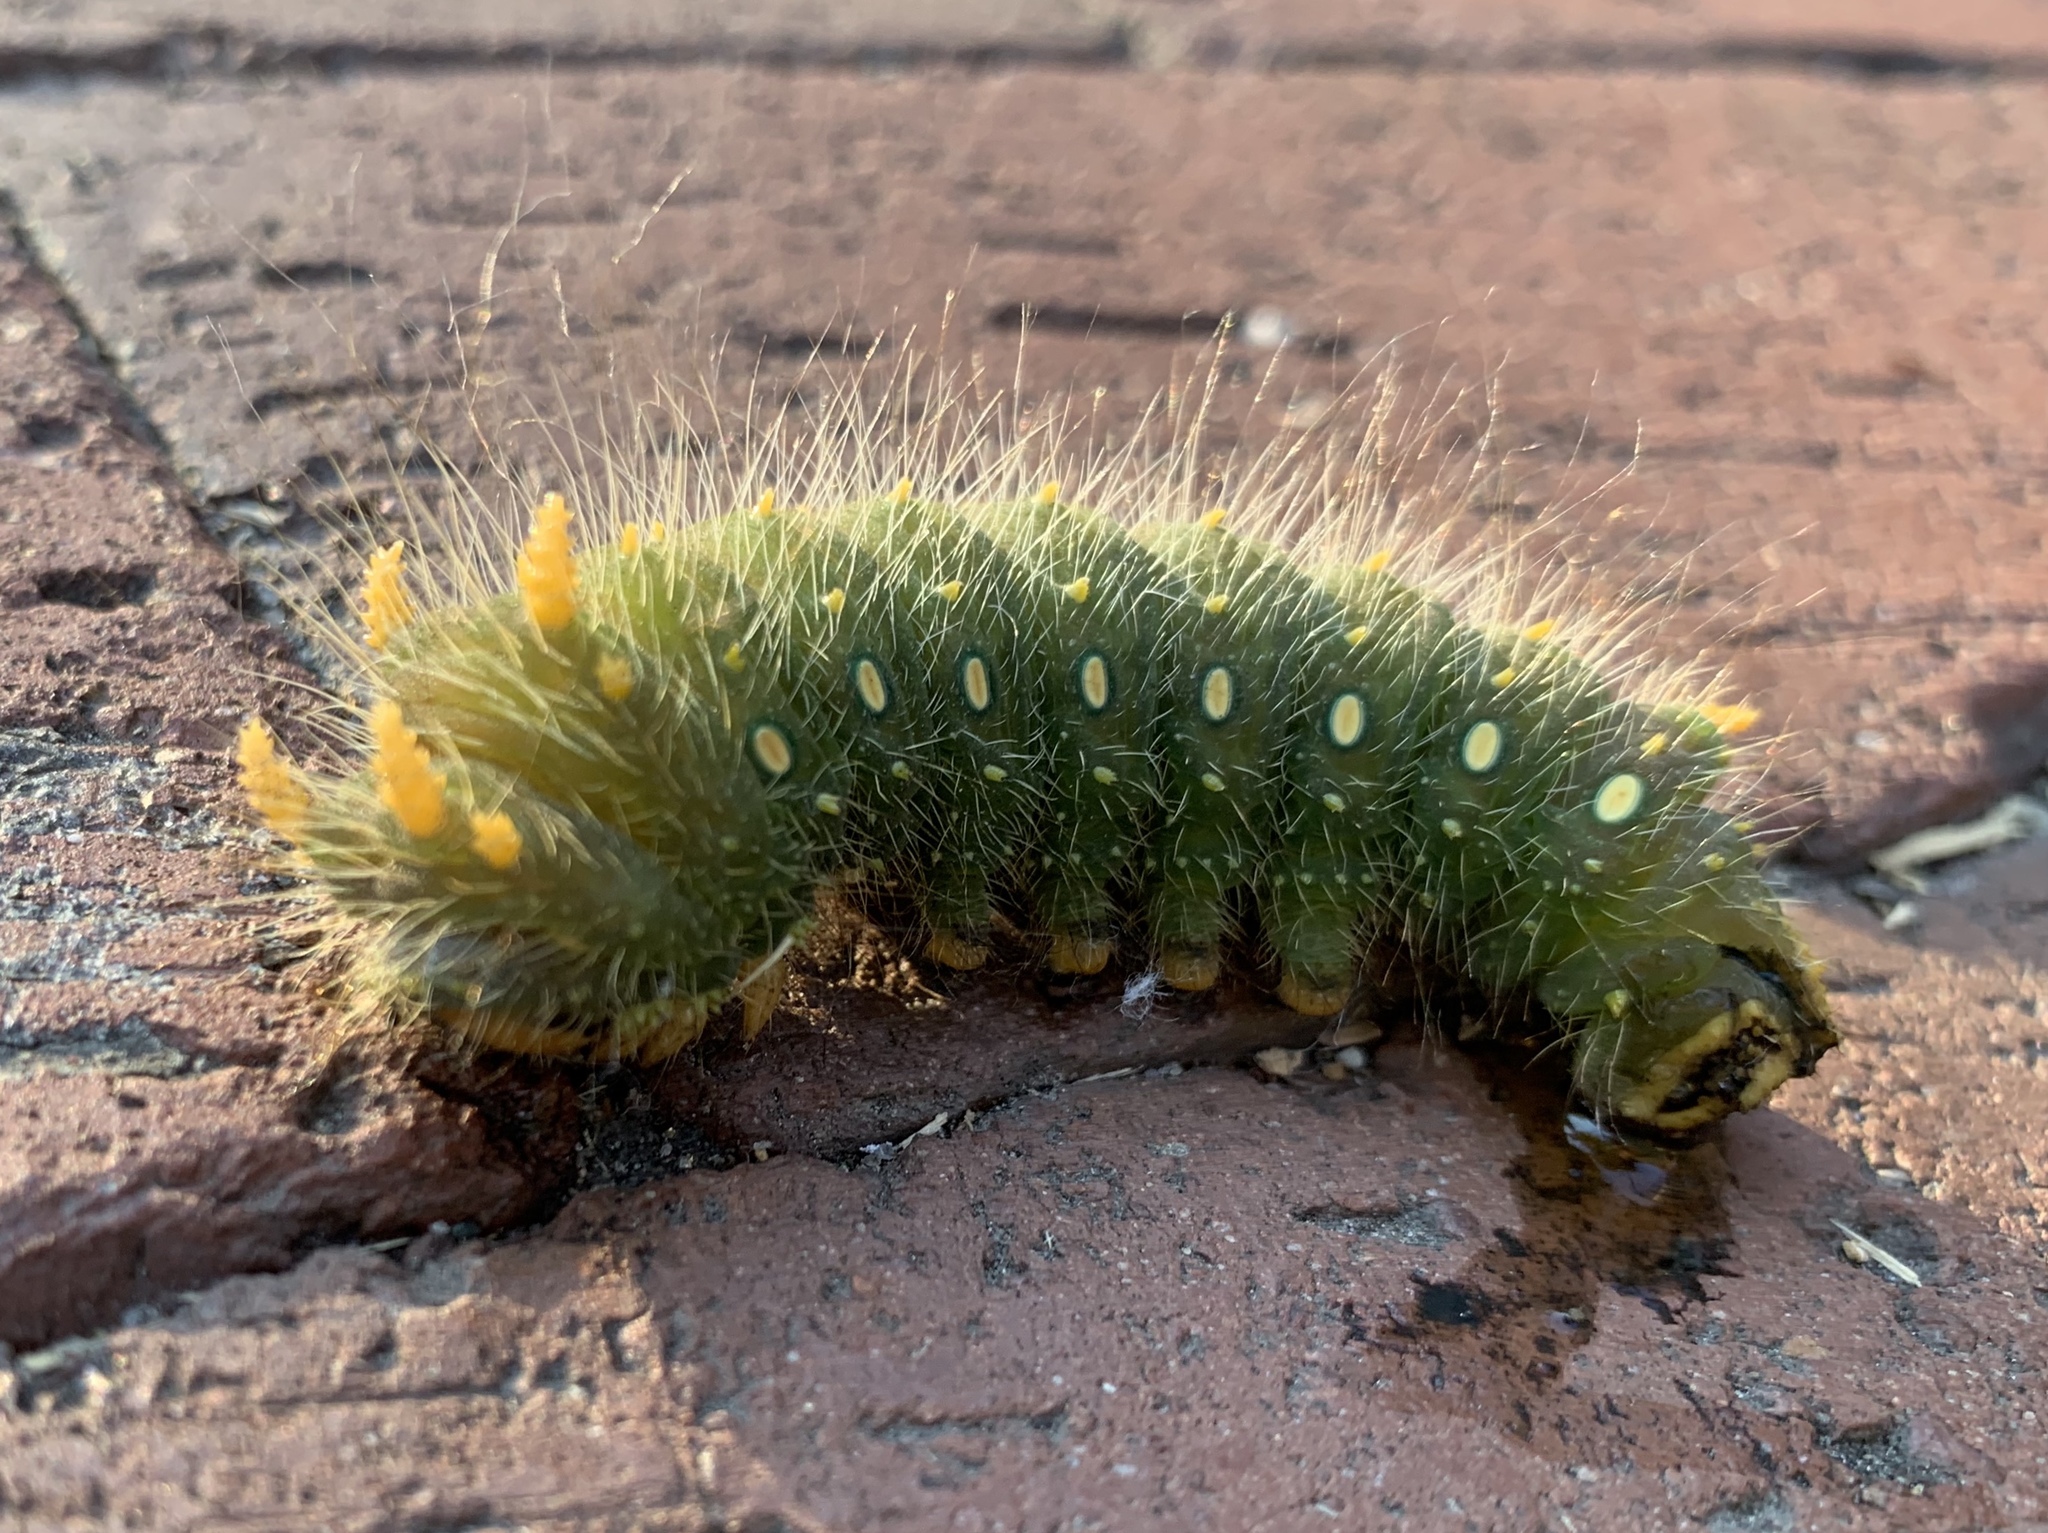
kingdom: Animalia
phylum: Arthropoda
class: Insecta
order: Lepidoptera
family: Saturniidae
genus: Eacles
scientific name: Eacles imperialis
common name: Imperial moth
